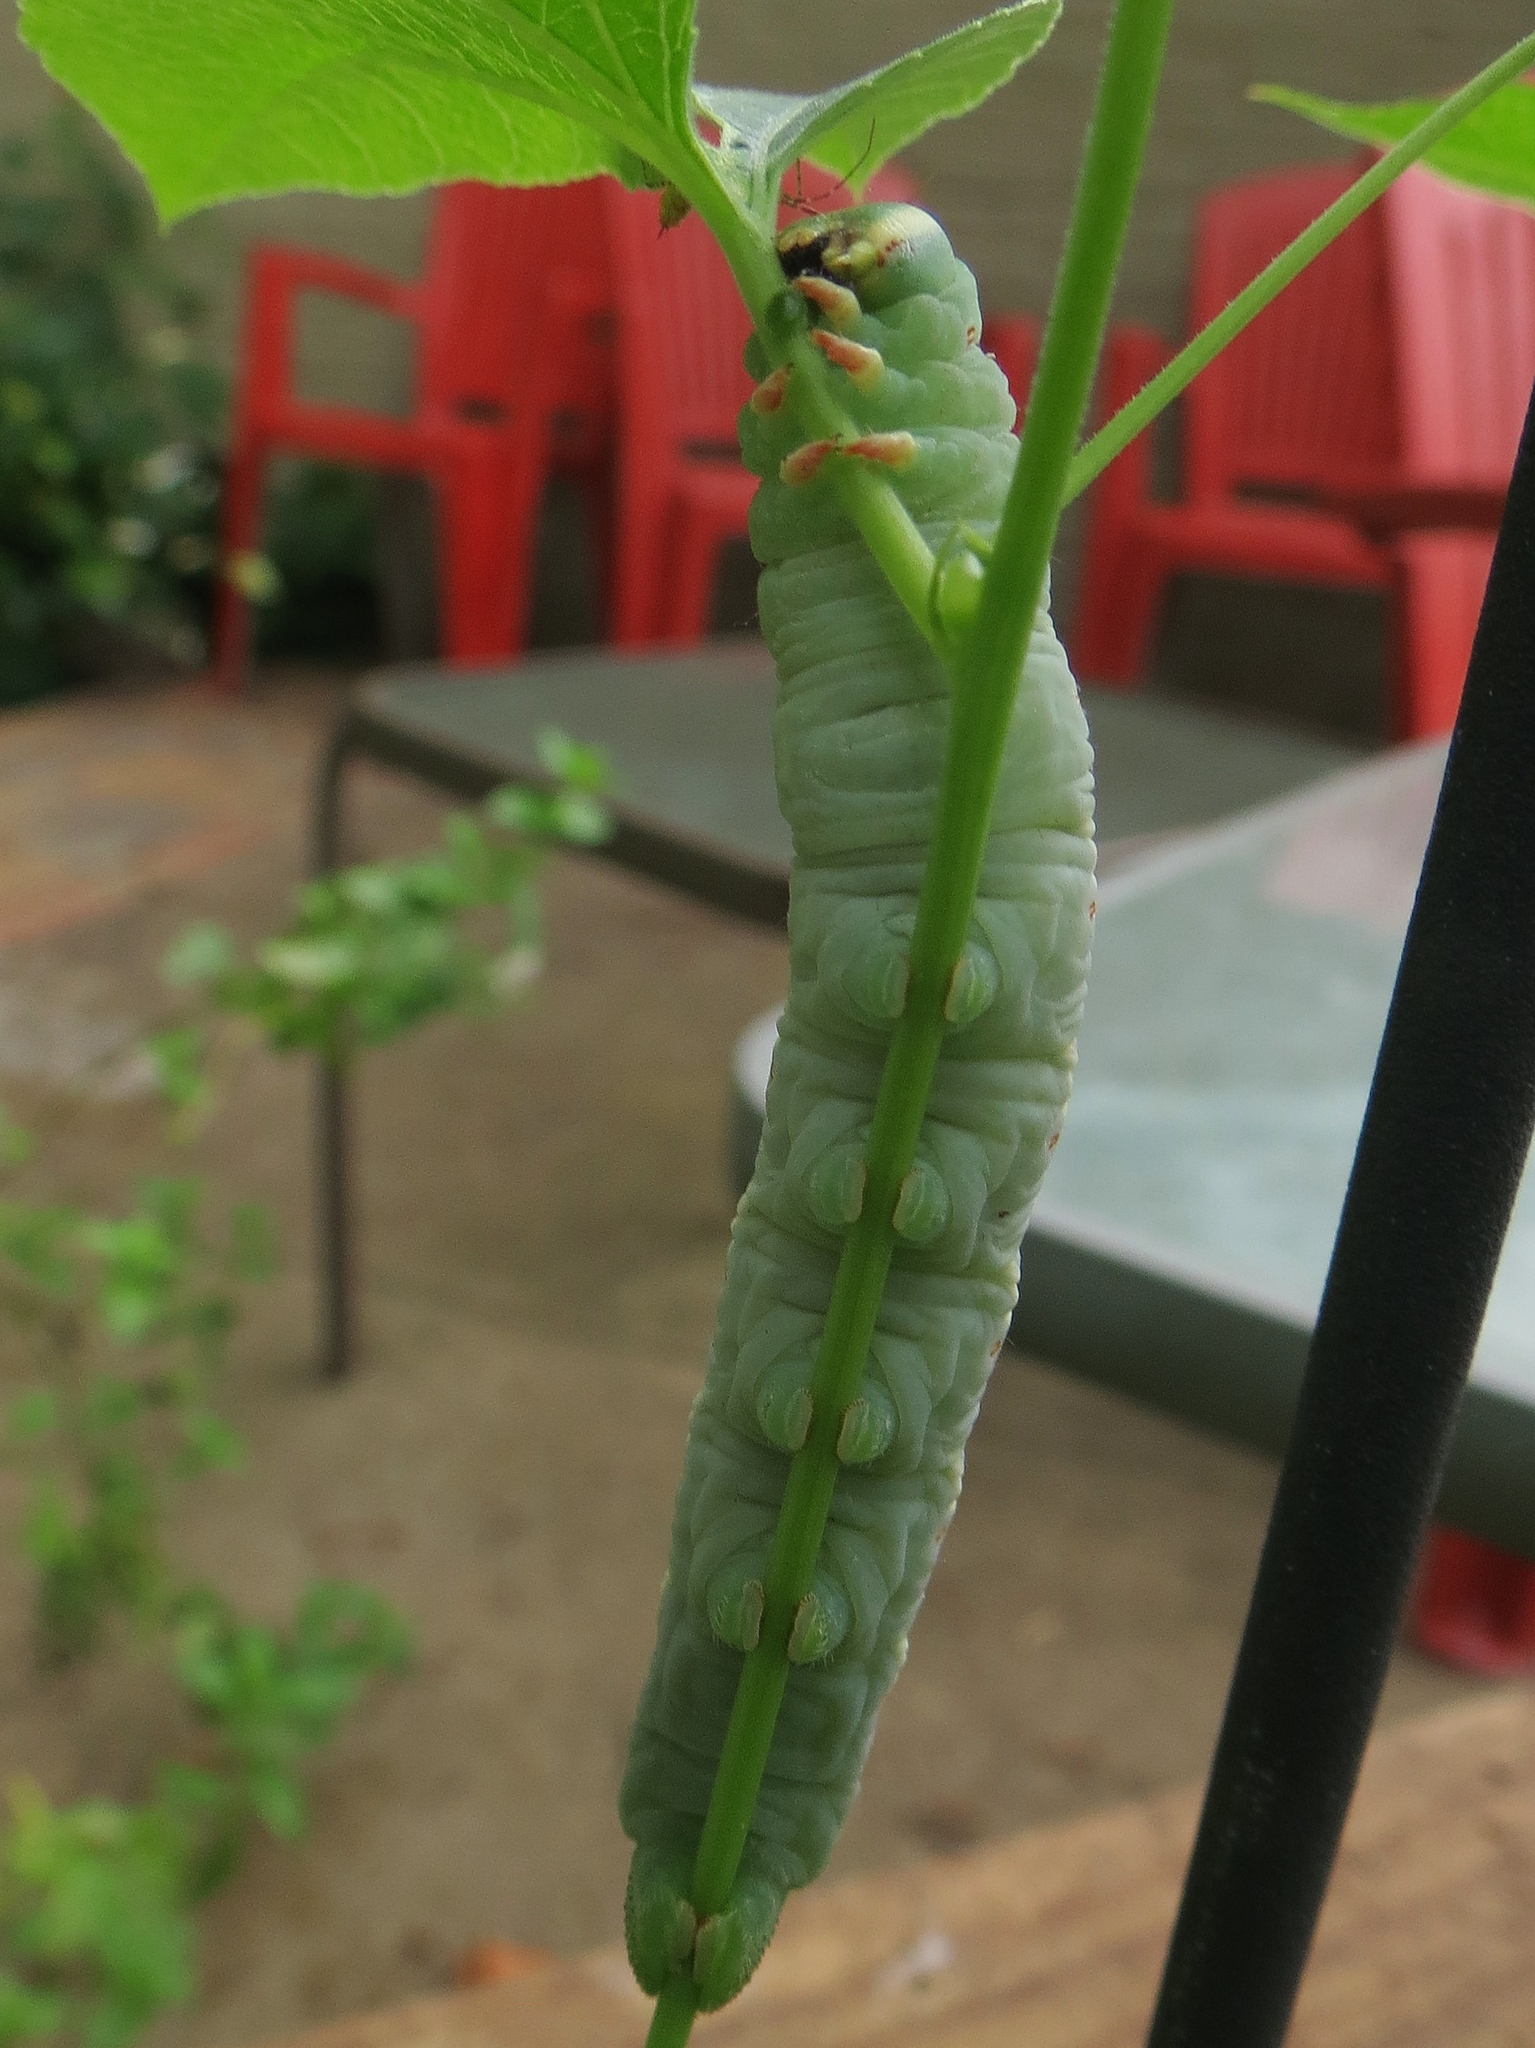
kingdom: Animalia
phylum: Arthropoda
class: Insecta
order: Lepidoptera
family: Sphingidae
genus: Ceratomia
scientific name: Ceratomia undulosa
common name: Waved sphinx
